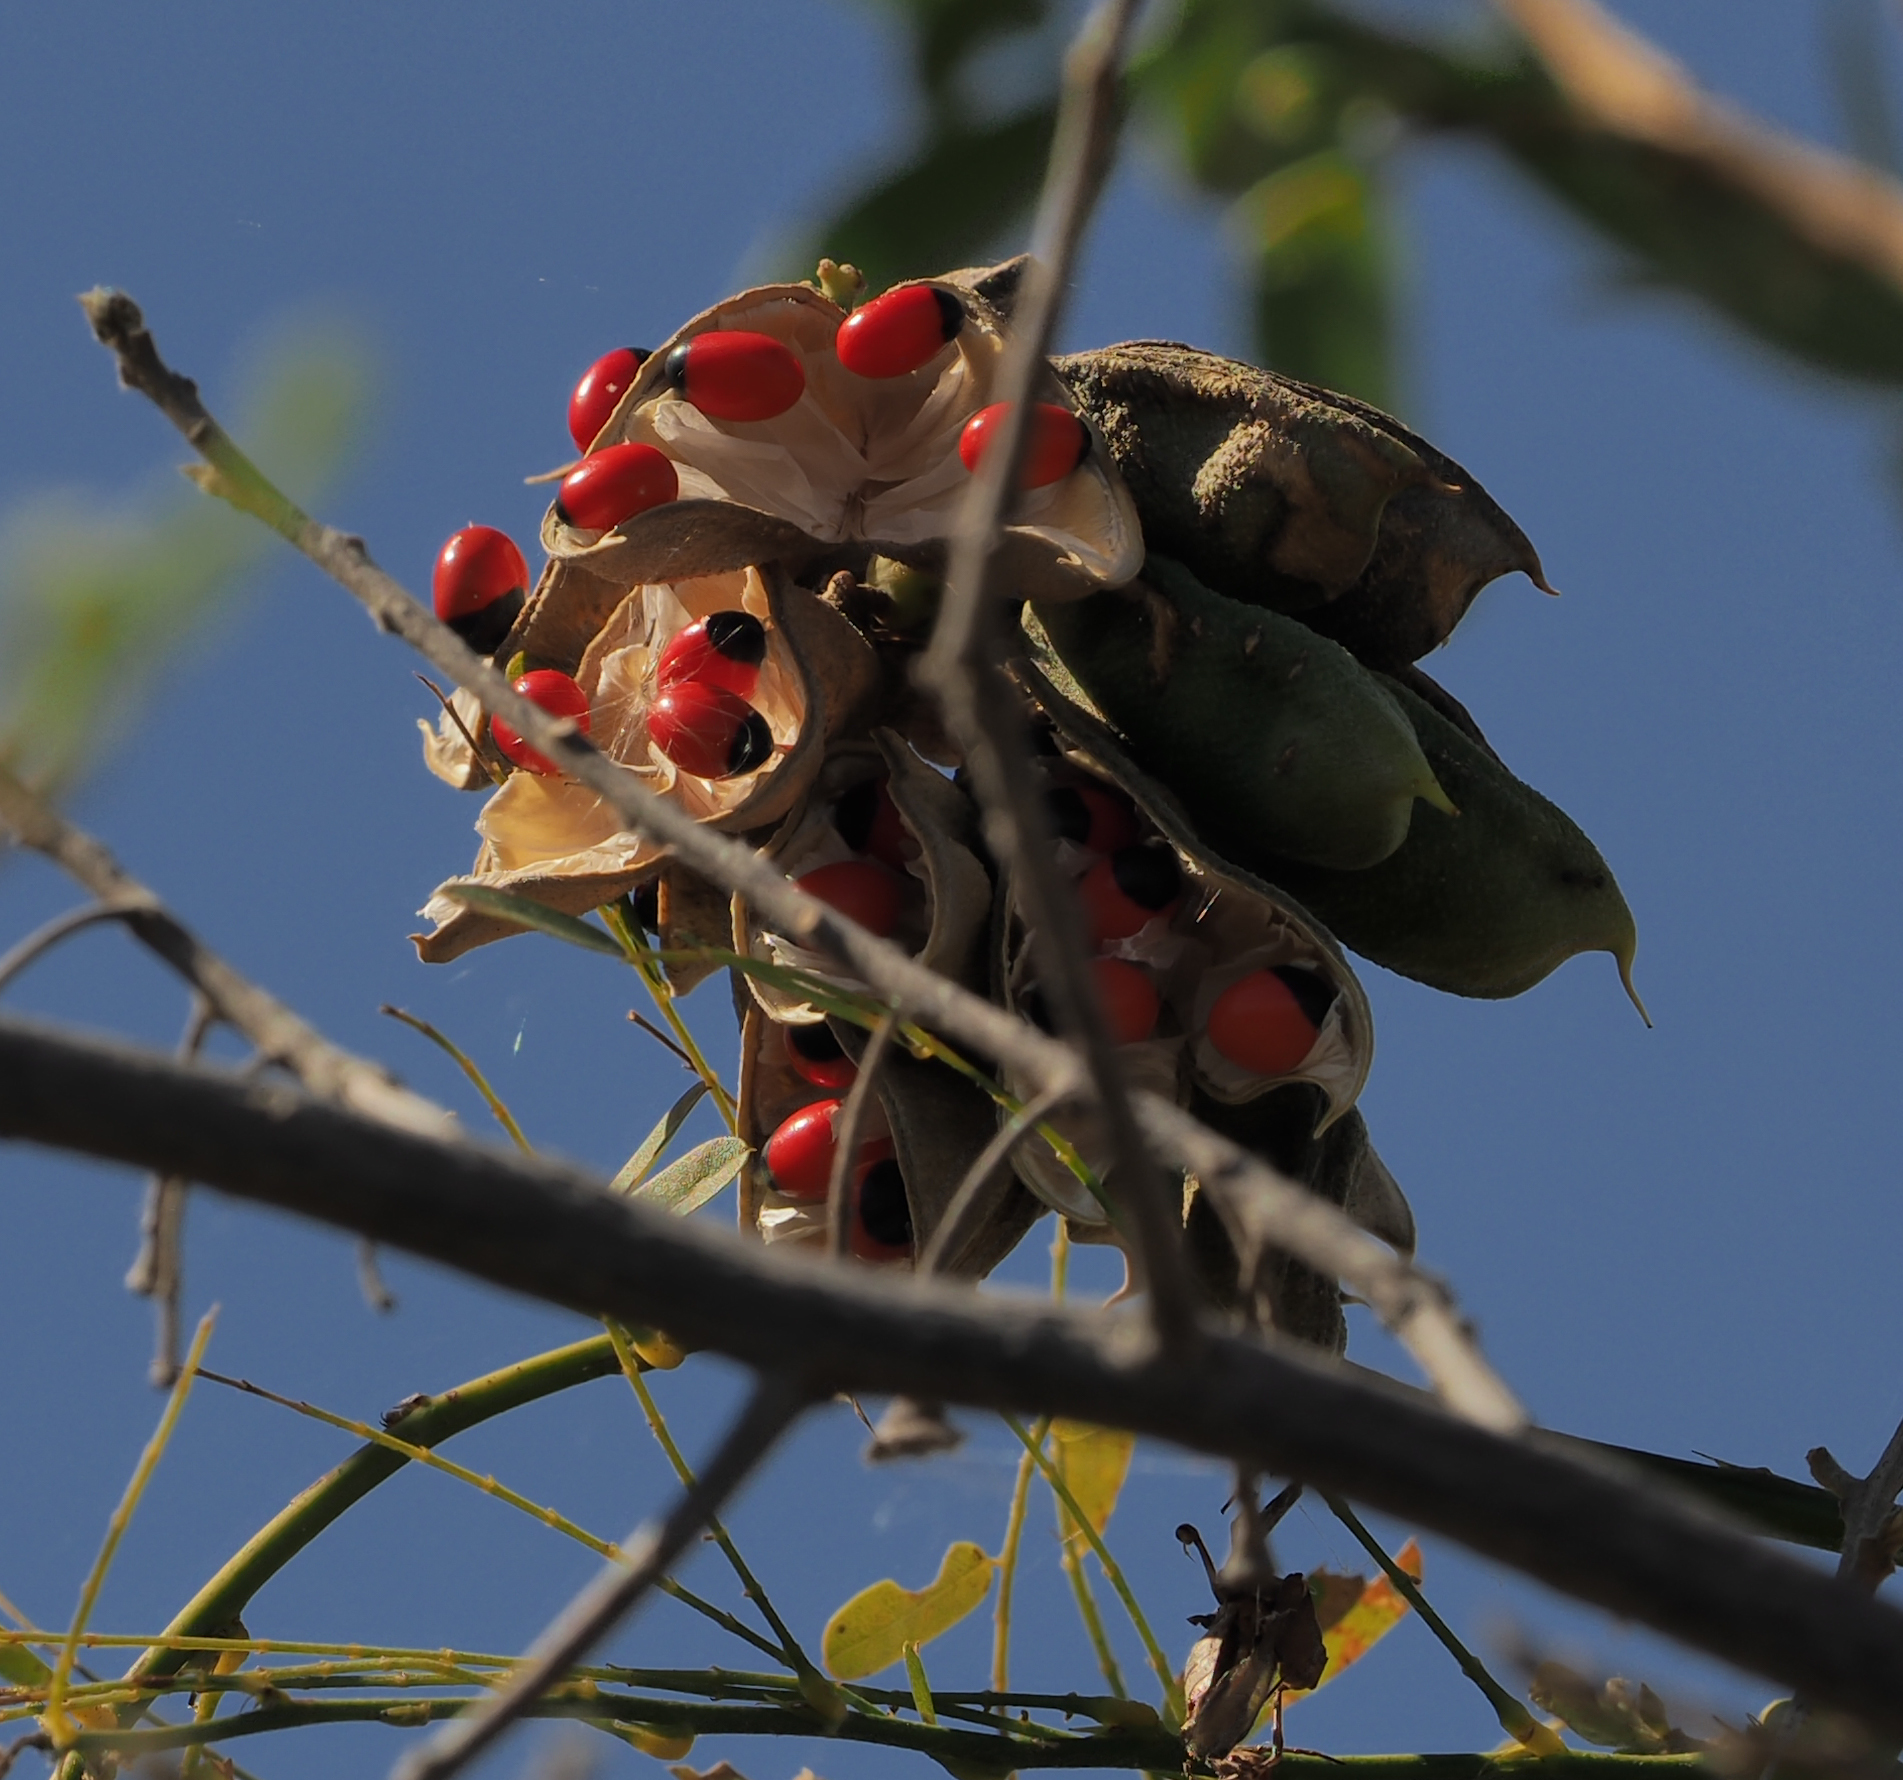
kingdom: Plantae
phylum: Tracheophyta
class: Magnoliopsida
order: Fabales
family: Fabaceae
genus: Abrus
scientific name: Abrus precatorius
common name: Rosarypea
